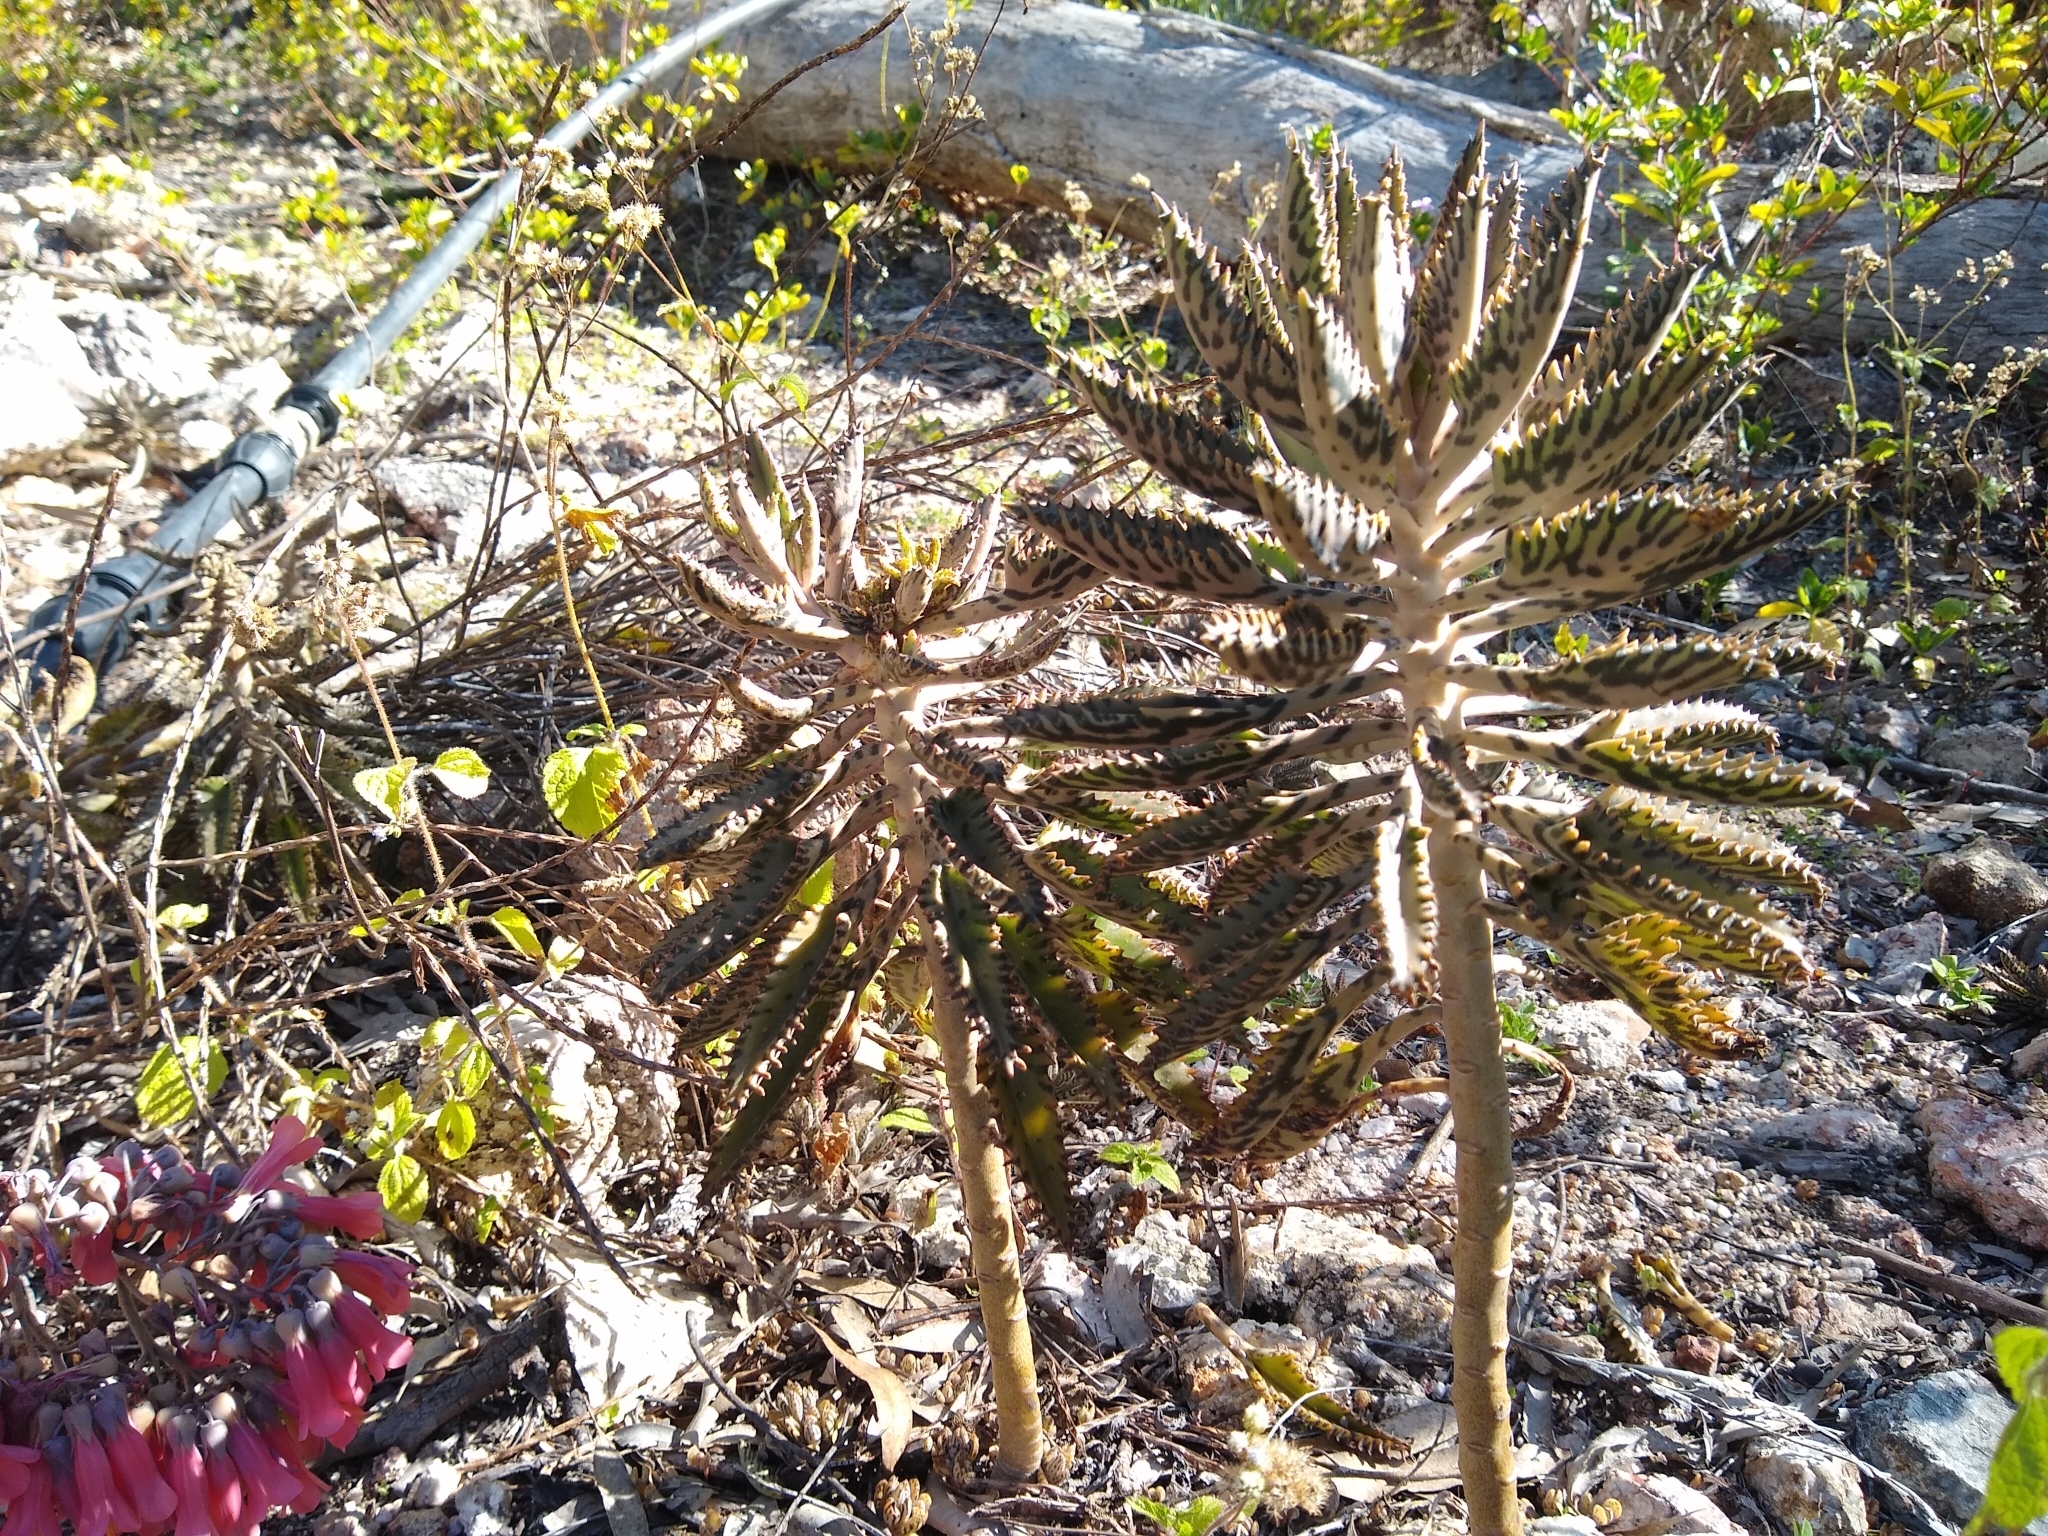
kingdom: Plantae
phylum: Tracheophyta
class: Magnoliopsida
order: Saxifragales
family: Crassulaceae
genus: Kalanchoe
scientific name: Kalanchoe houghtonii
